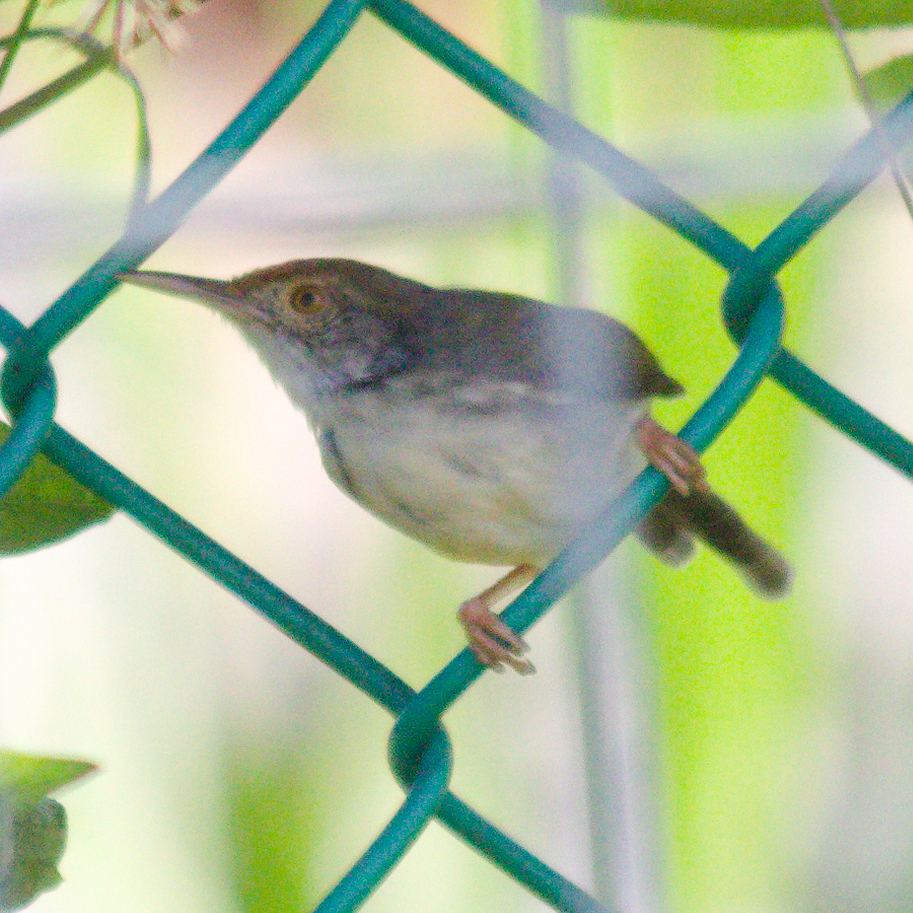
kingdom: Animalia
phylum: Chordata
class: Aves
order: Passeriformes
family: Cisticolidae
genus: Orthotomus
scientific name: Orthotomus sutorius
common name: Common tailorbird
